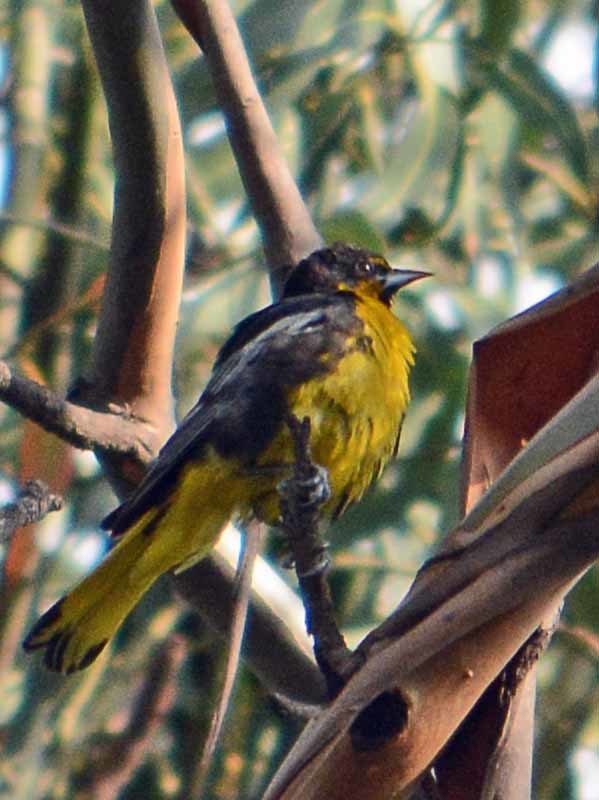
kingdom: Animalia
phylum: Chordata
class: Aves
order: Passeriformes
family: Icteridae
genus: Icterus
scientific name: Icterus abeillei
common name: Black-backed oriole
